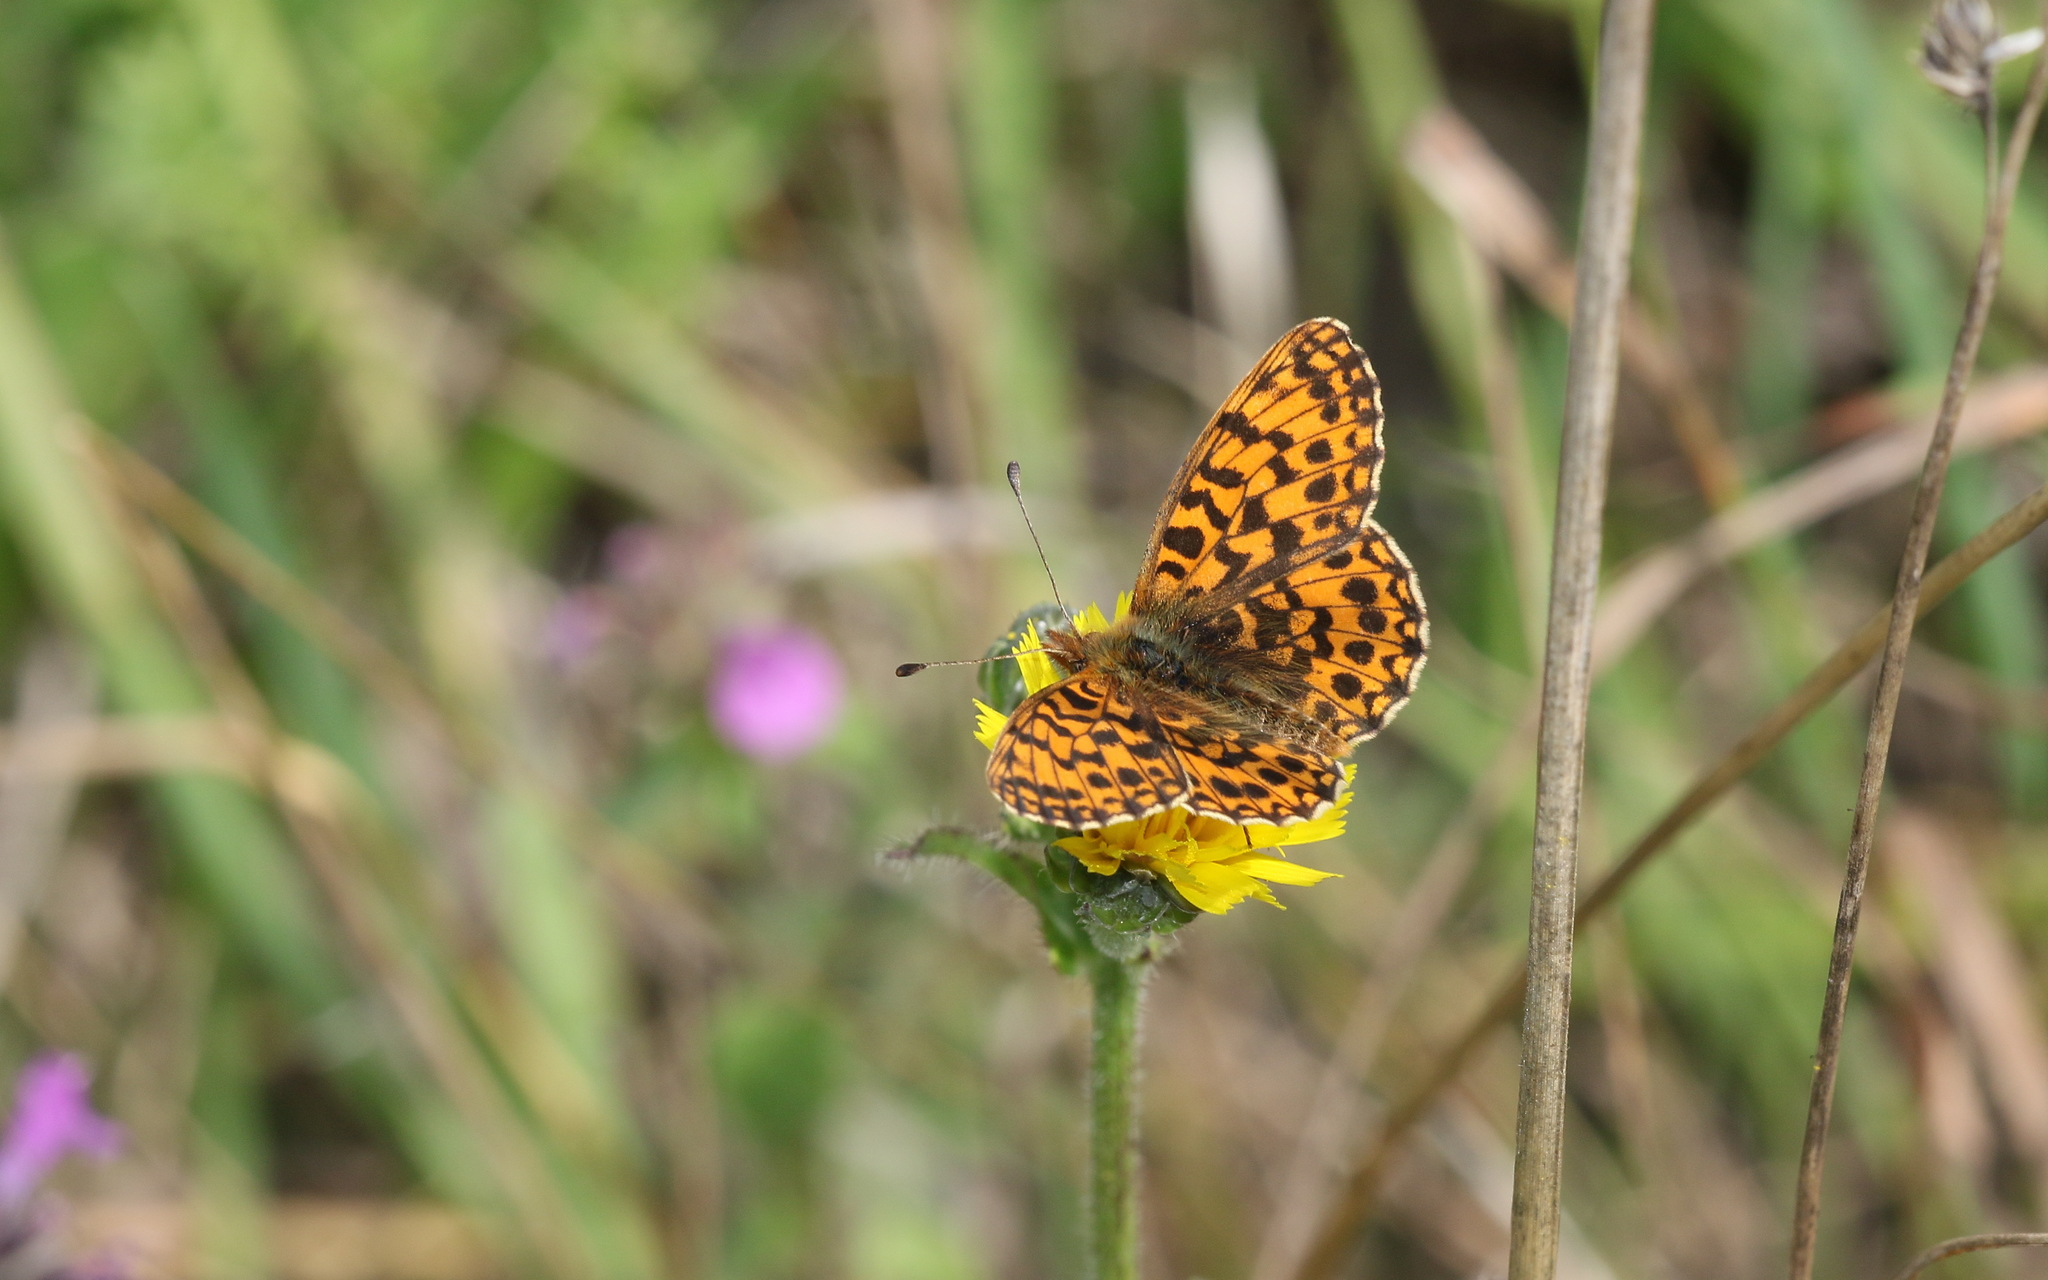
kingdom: Animalia
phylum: Arthropoda
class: Insecta
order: Lepidoptera
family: Nymphalidae
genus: Boloria
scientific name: Boloria dia
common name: Weaver's fritillary
